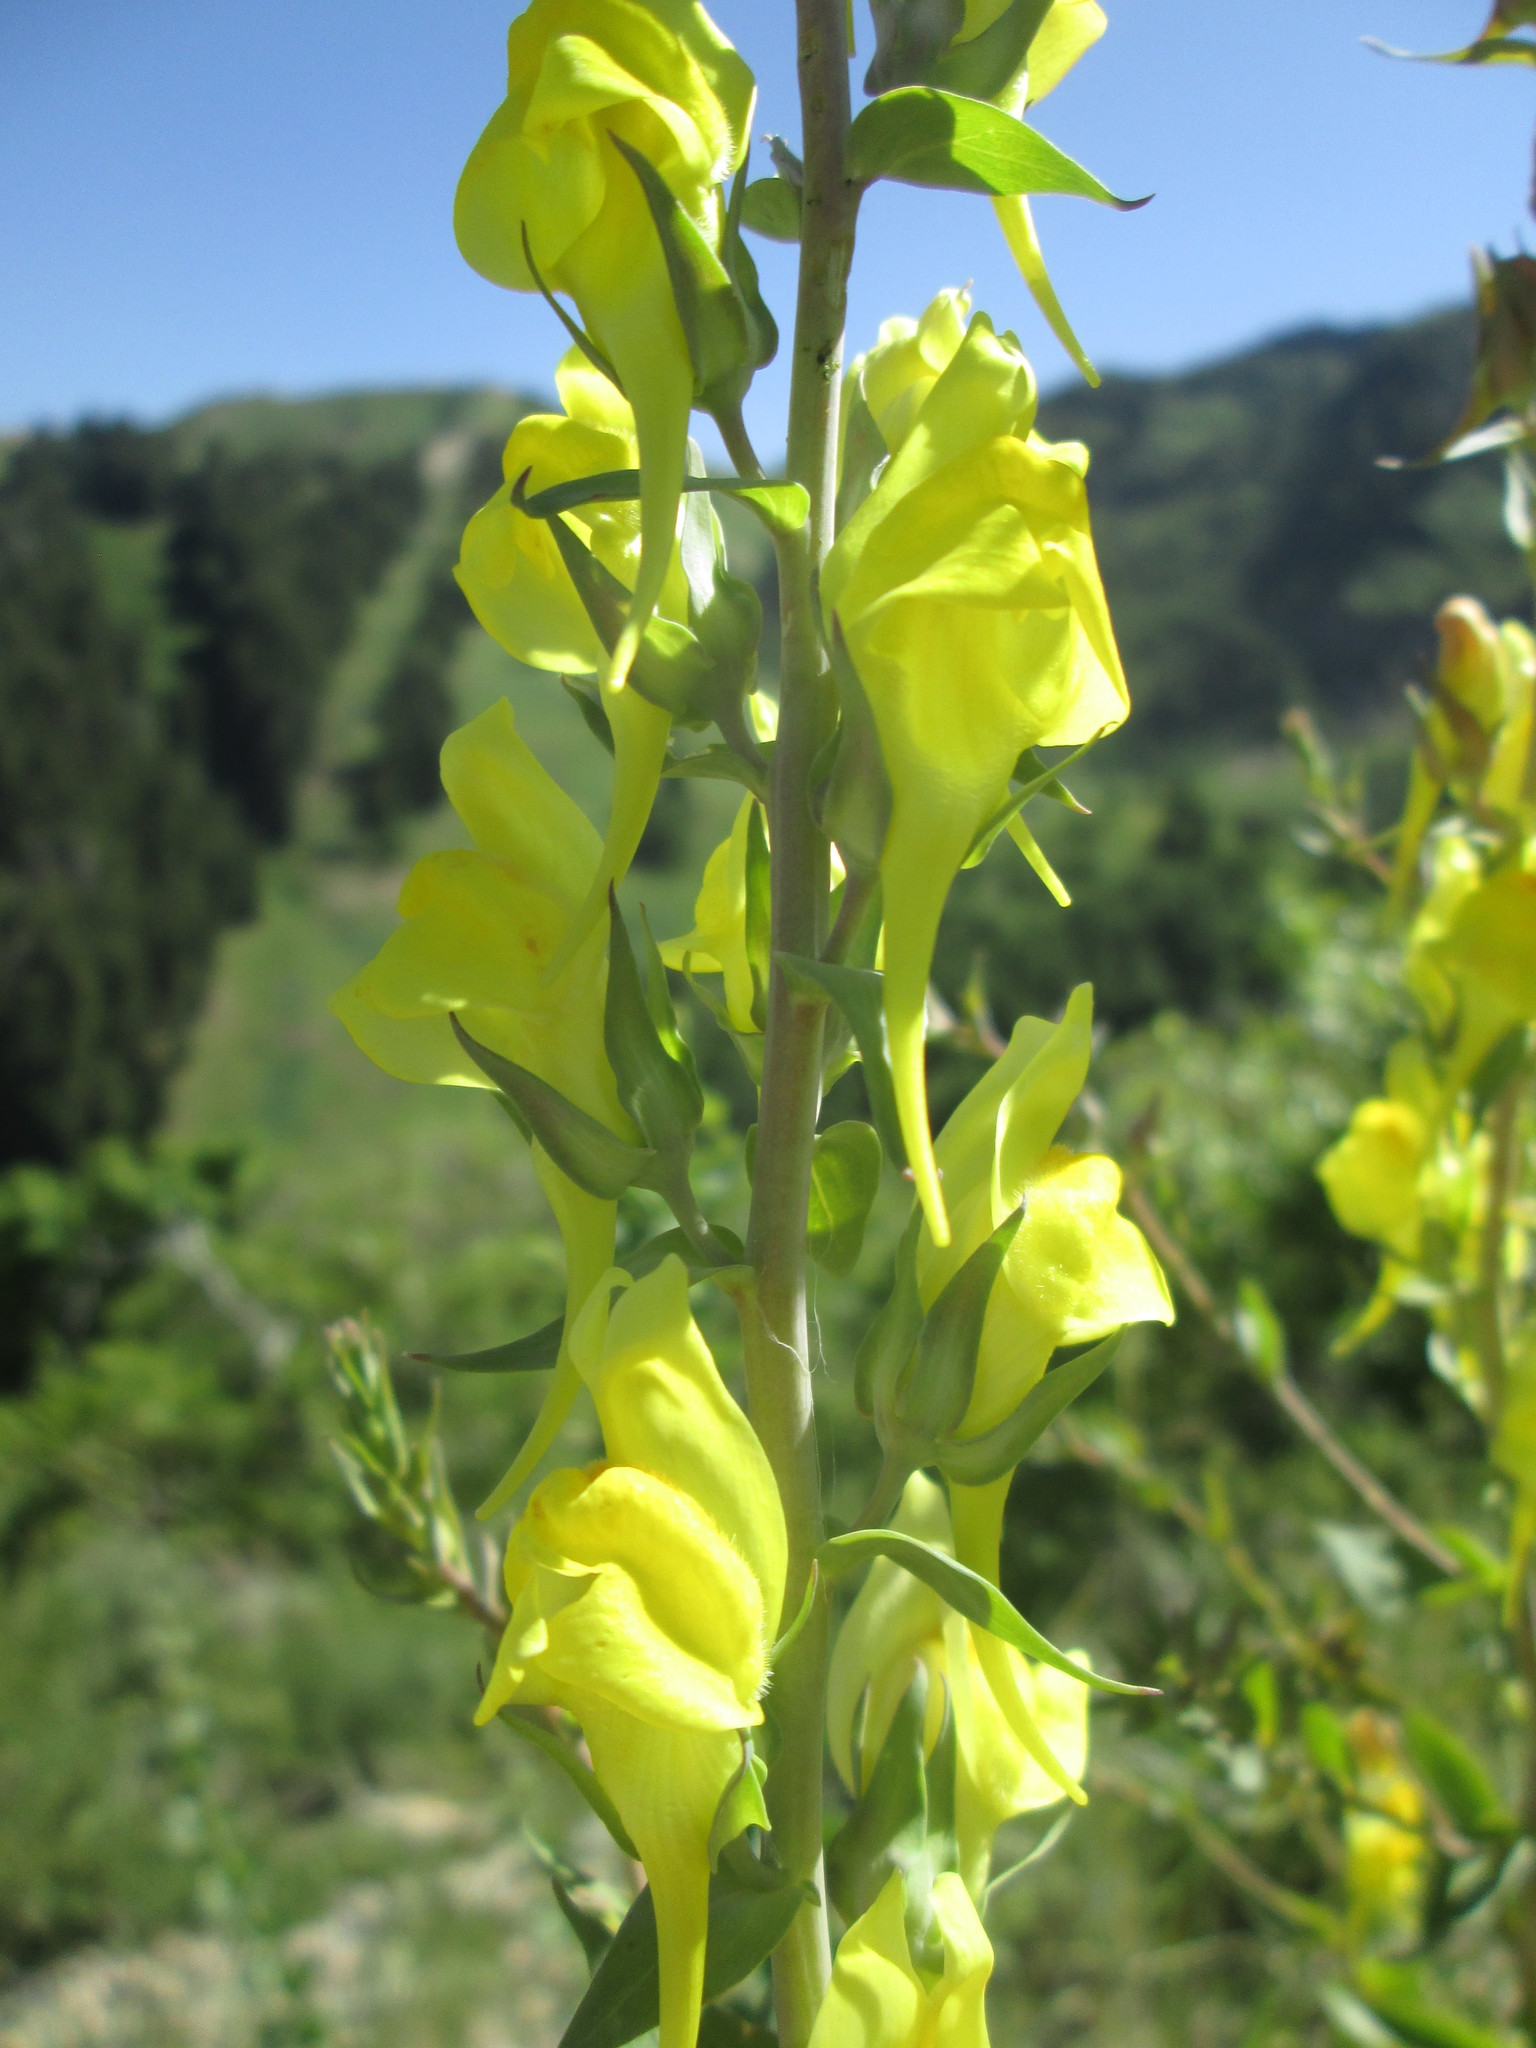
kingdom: Plantae
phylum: Tracheophyta
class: Magnoliopsida
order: Lamiales
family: Plantaginaceae
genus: Linaria
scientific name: Linaria dalmatica
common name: Dalmatian toadflax
